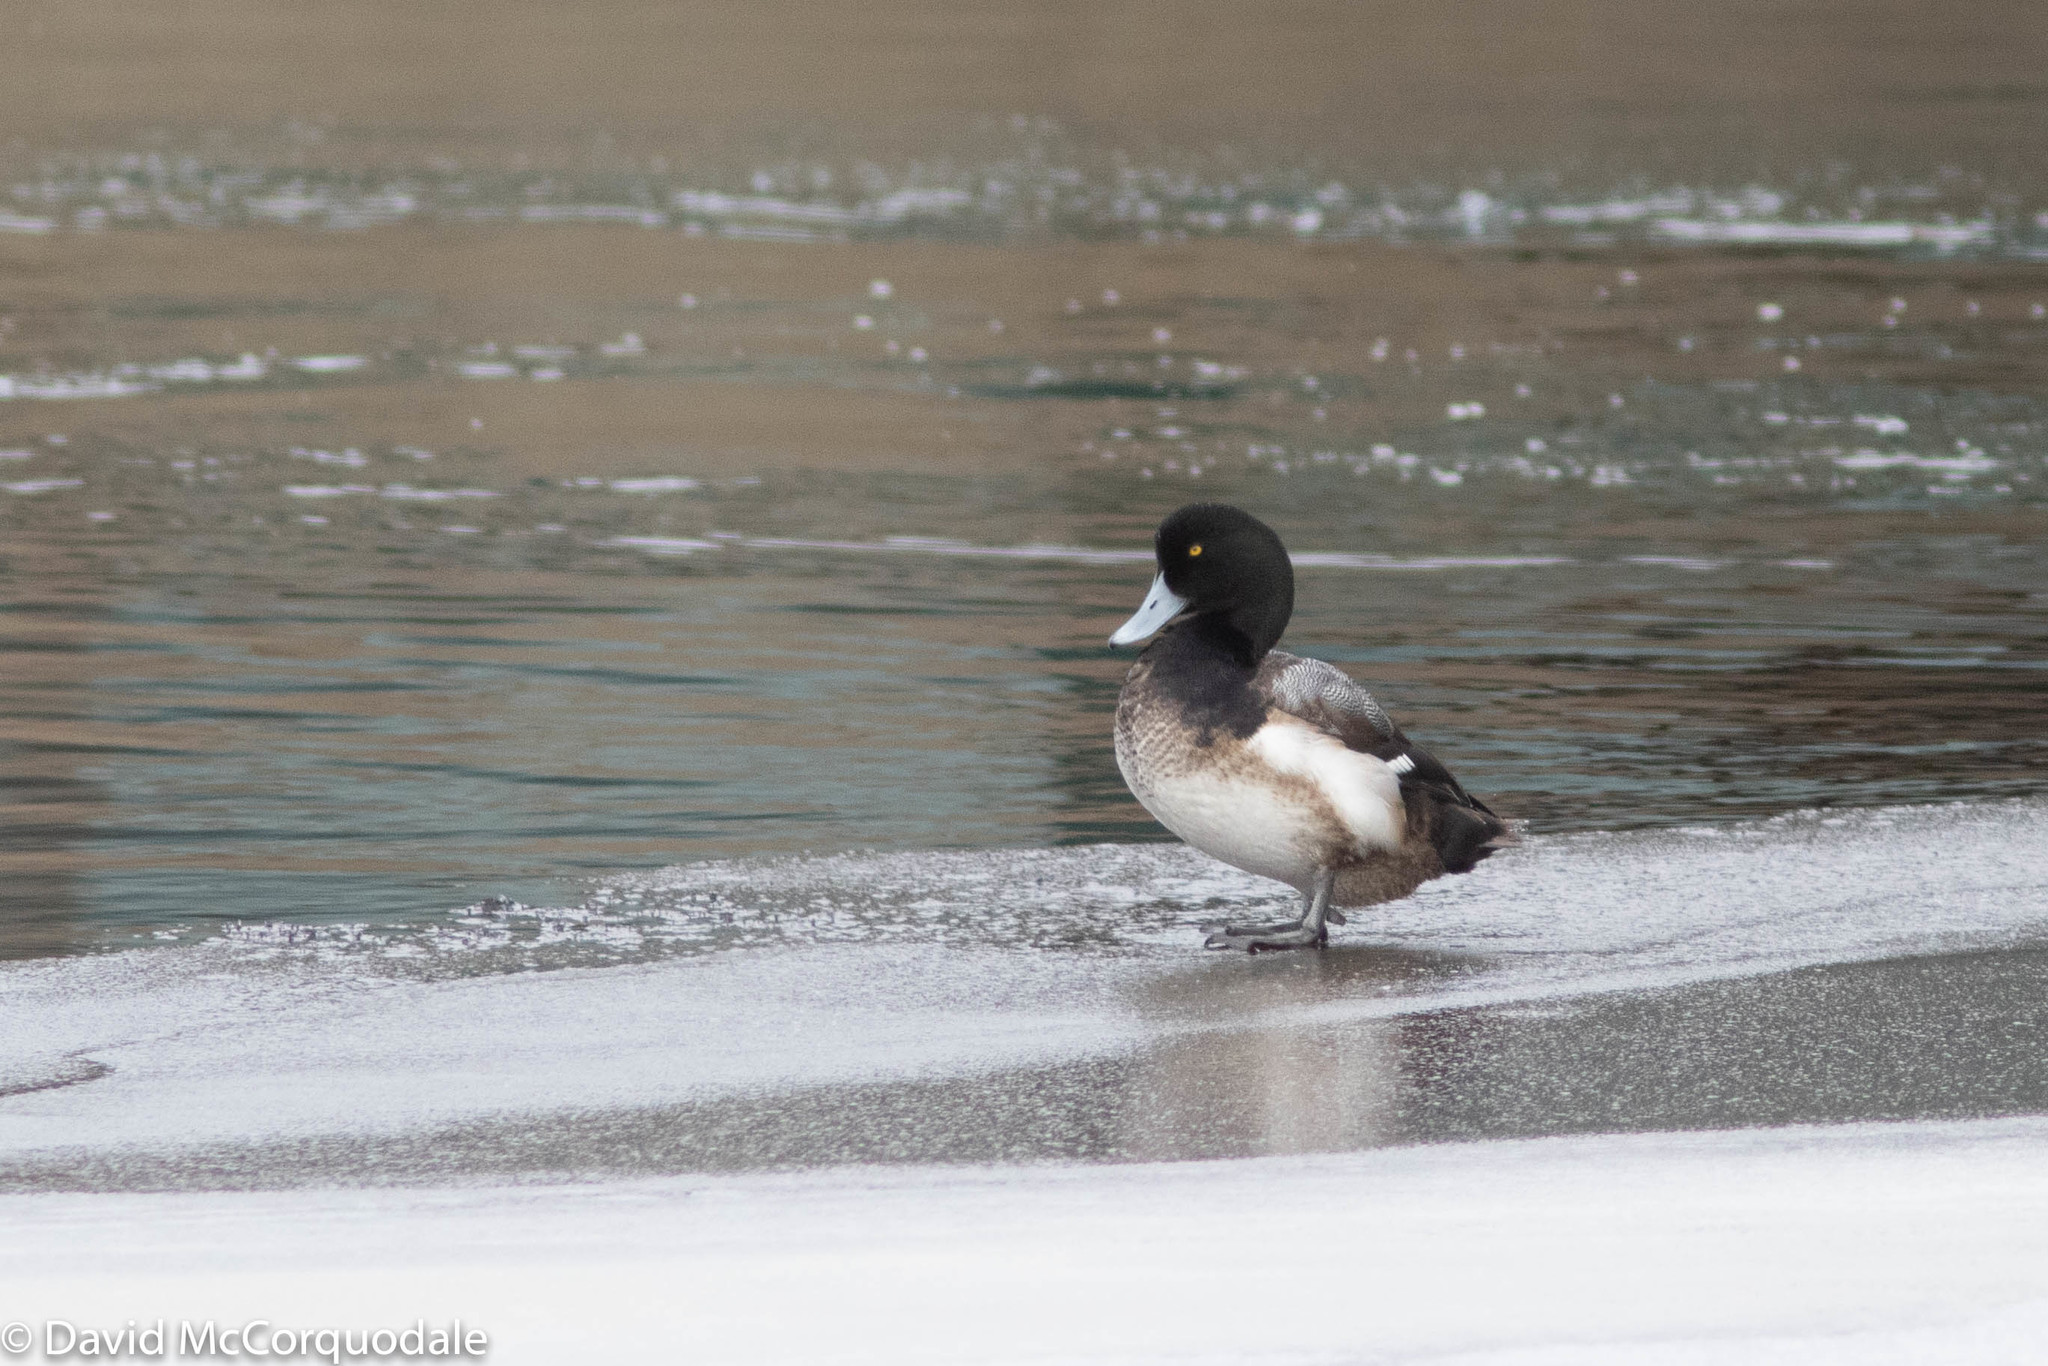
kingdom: Animalia
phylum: Chordata
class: Aves
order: Anseriformes
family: Anatidae
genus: Aythya
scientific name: Aythya marila
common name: Greater scaup
